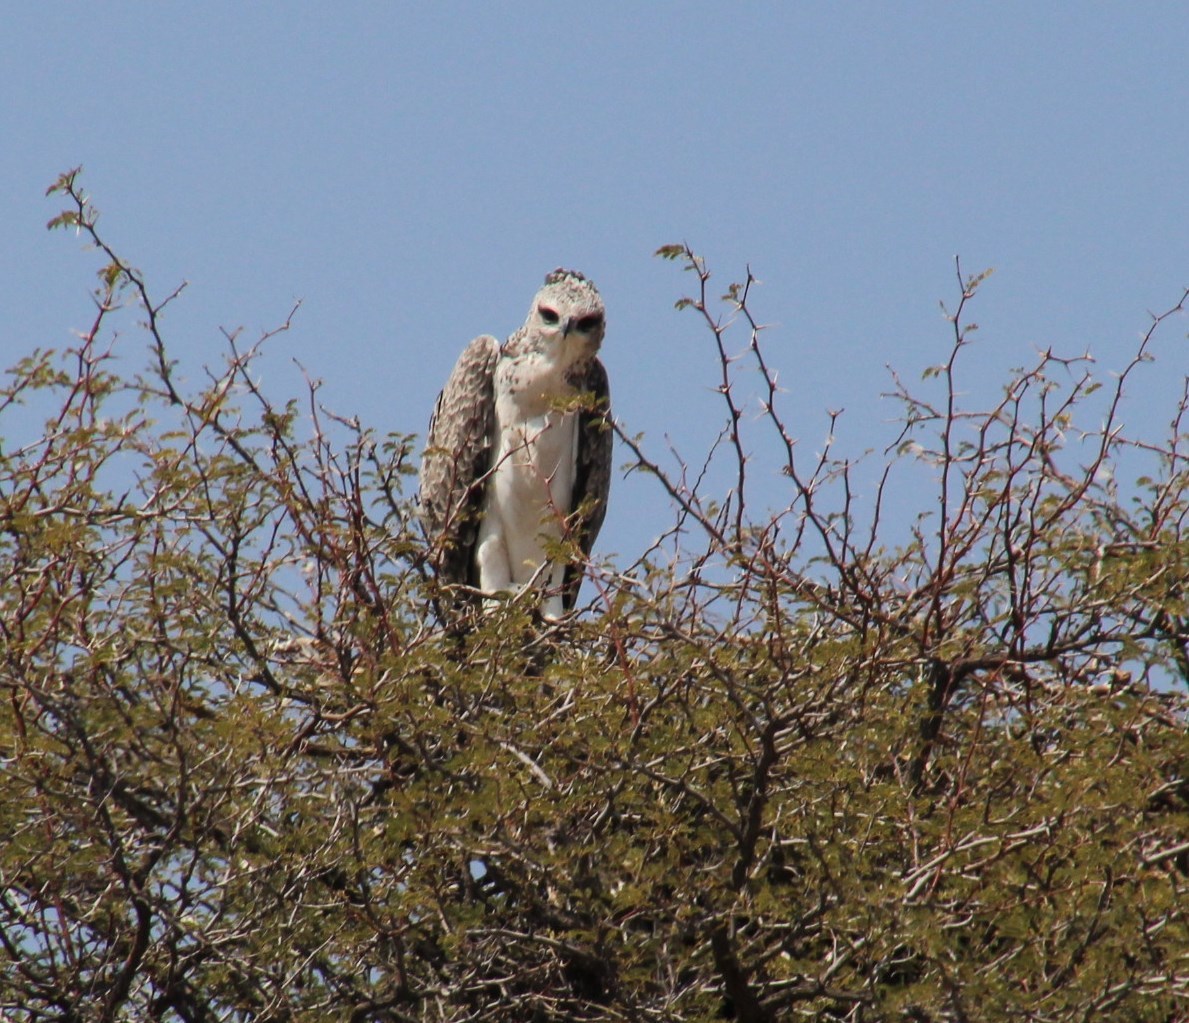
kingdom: Animalia
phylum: Chordata
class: Aves
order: Accipitriformes
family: Accipitridae
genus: Polemaetus
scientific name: Polemaetus bellicosus
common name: Martial eagle
